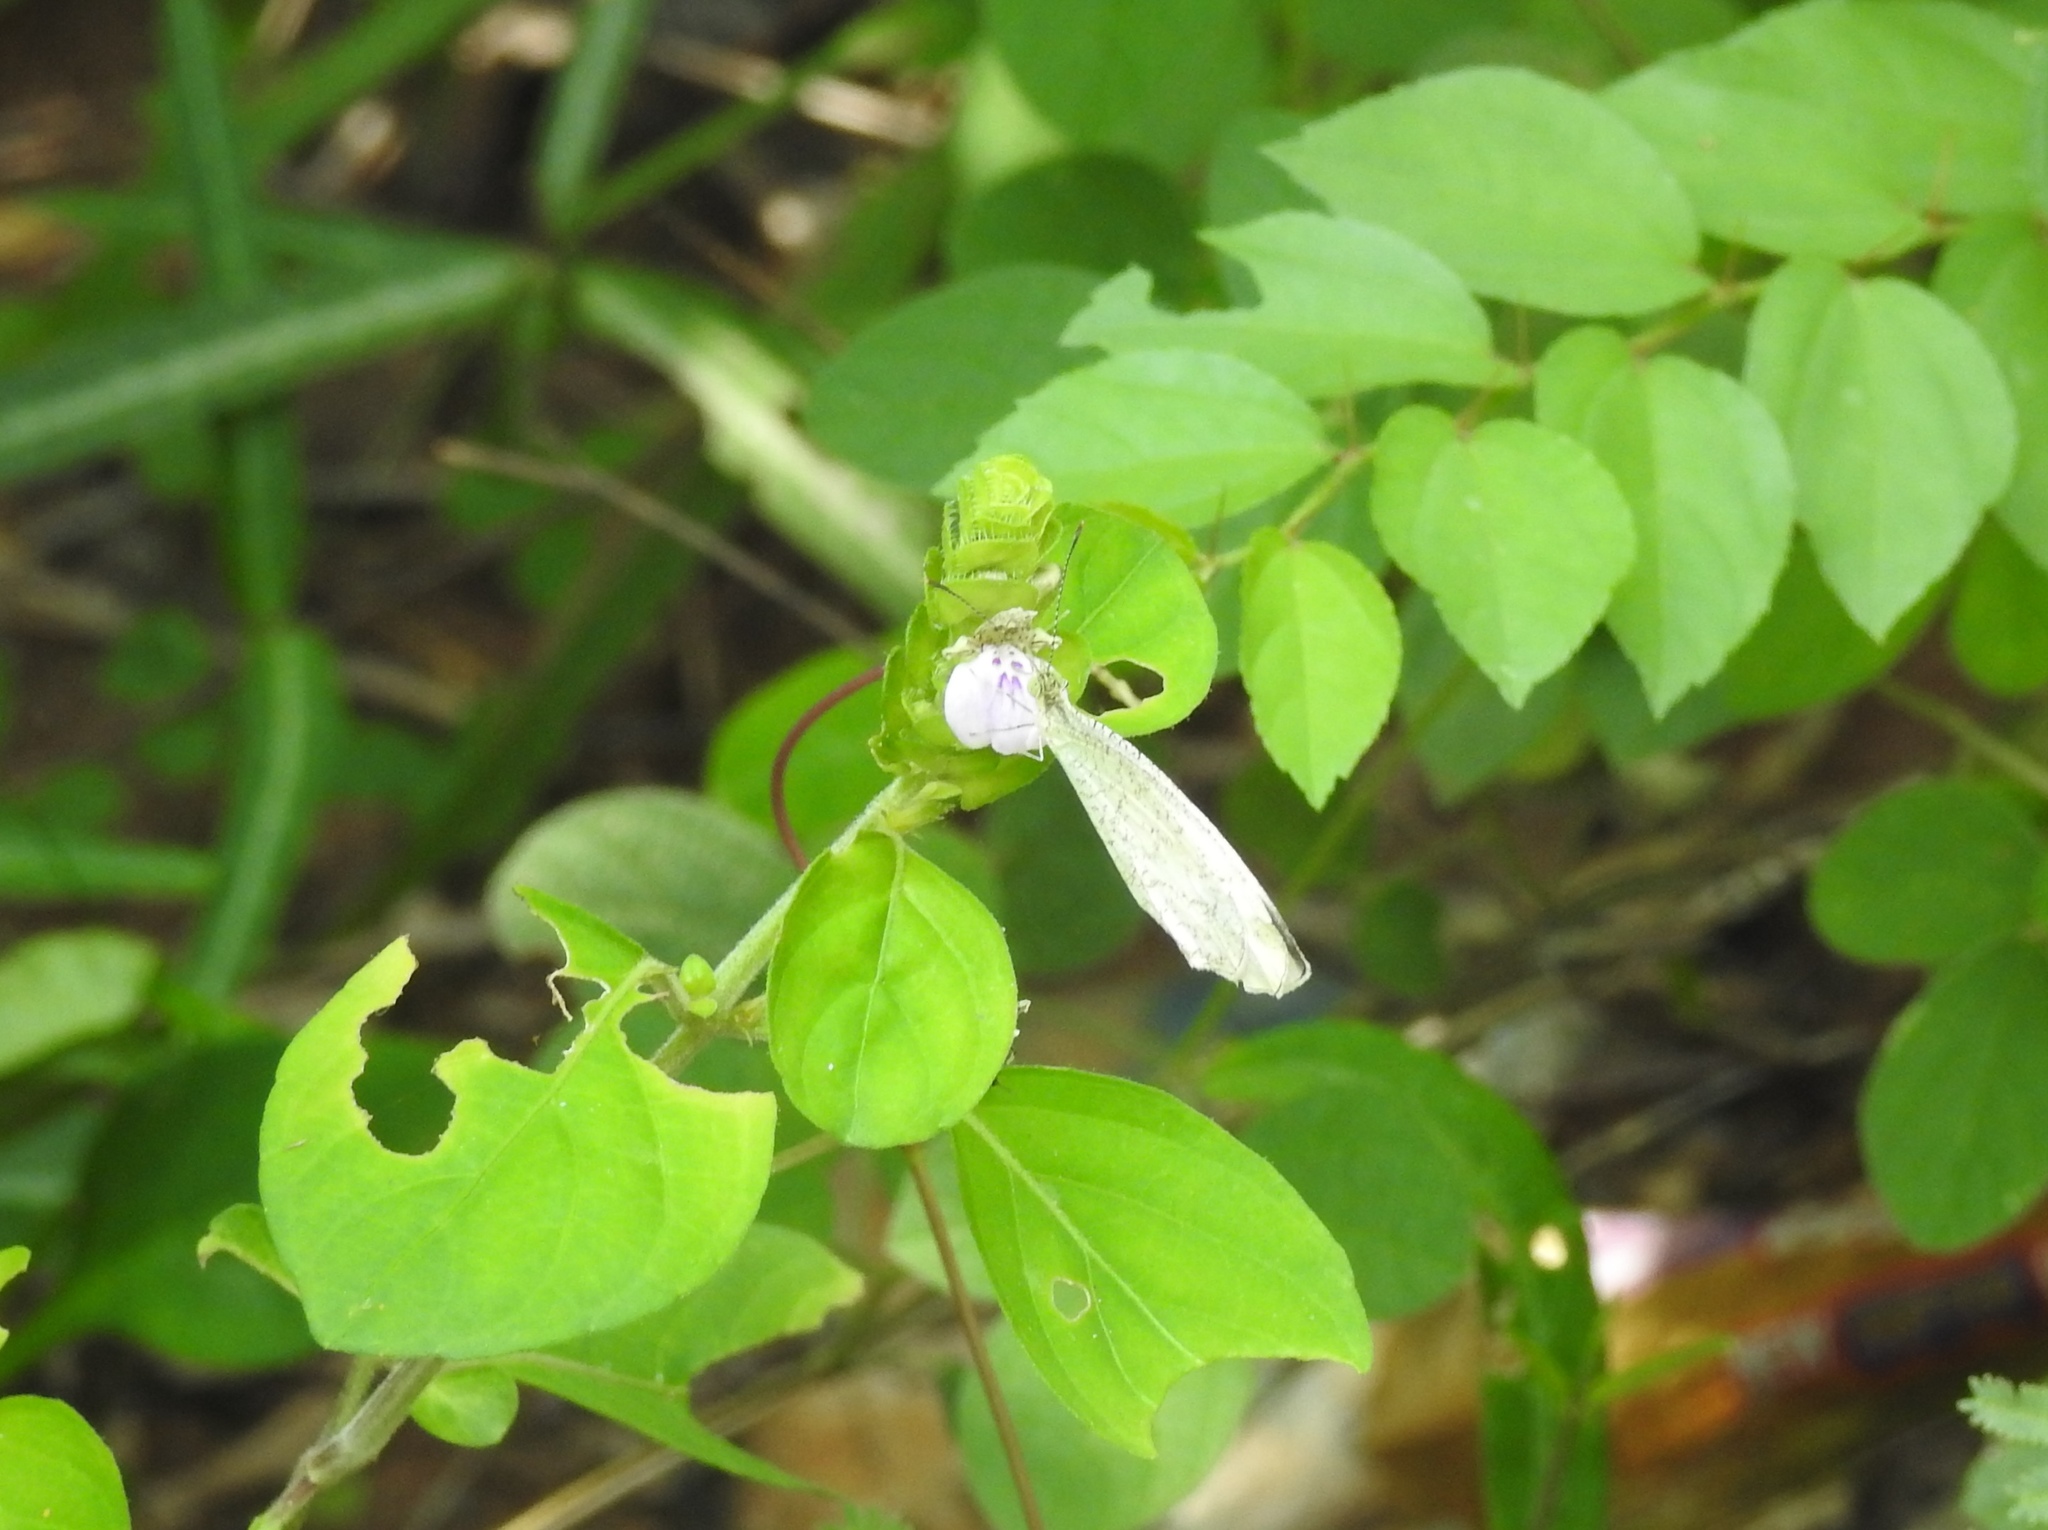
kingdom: Animalia
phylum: Arthropoda
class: Insecta
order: Lepidoptera
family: Pieridae
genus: Leptosia
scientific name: Leptosia nina
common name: Psyche
